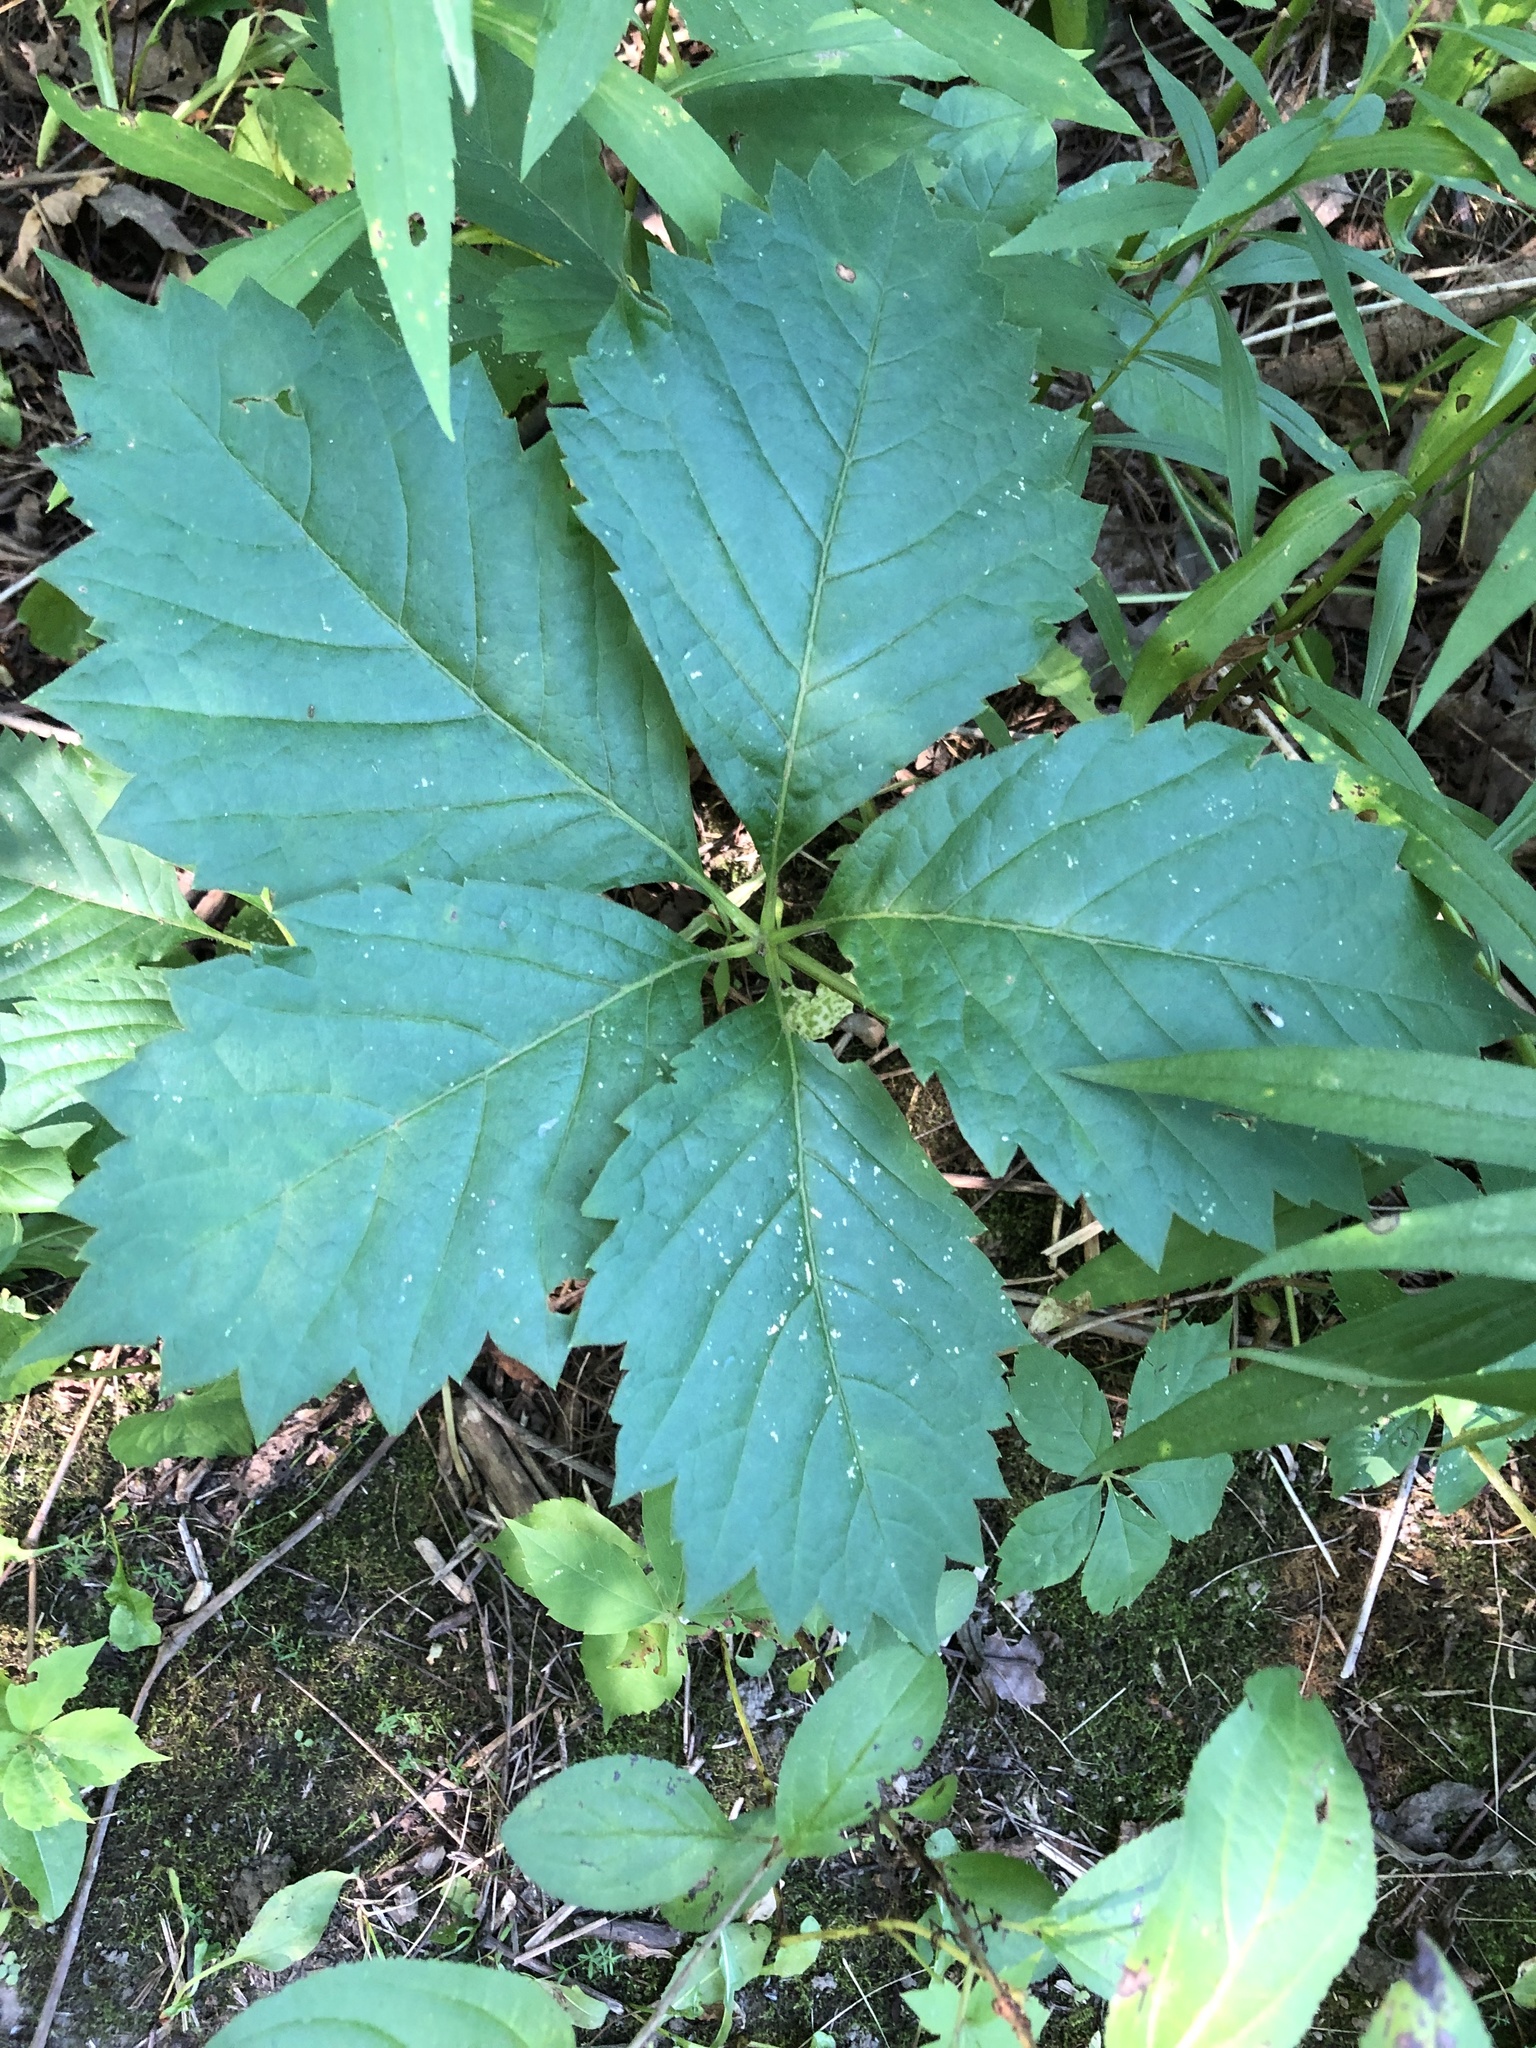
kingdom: Plantae
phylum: Tracheophyta
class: Magnoliopsida
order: Vitales
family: Vitaceae
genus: Parthenocissus
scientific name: Parthenocissus quinquefolia
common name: Virginia-creeper
